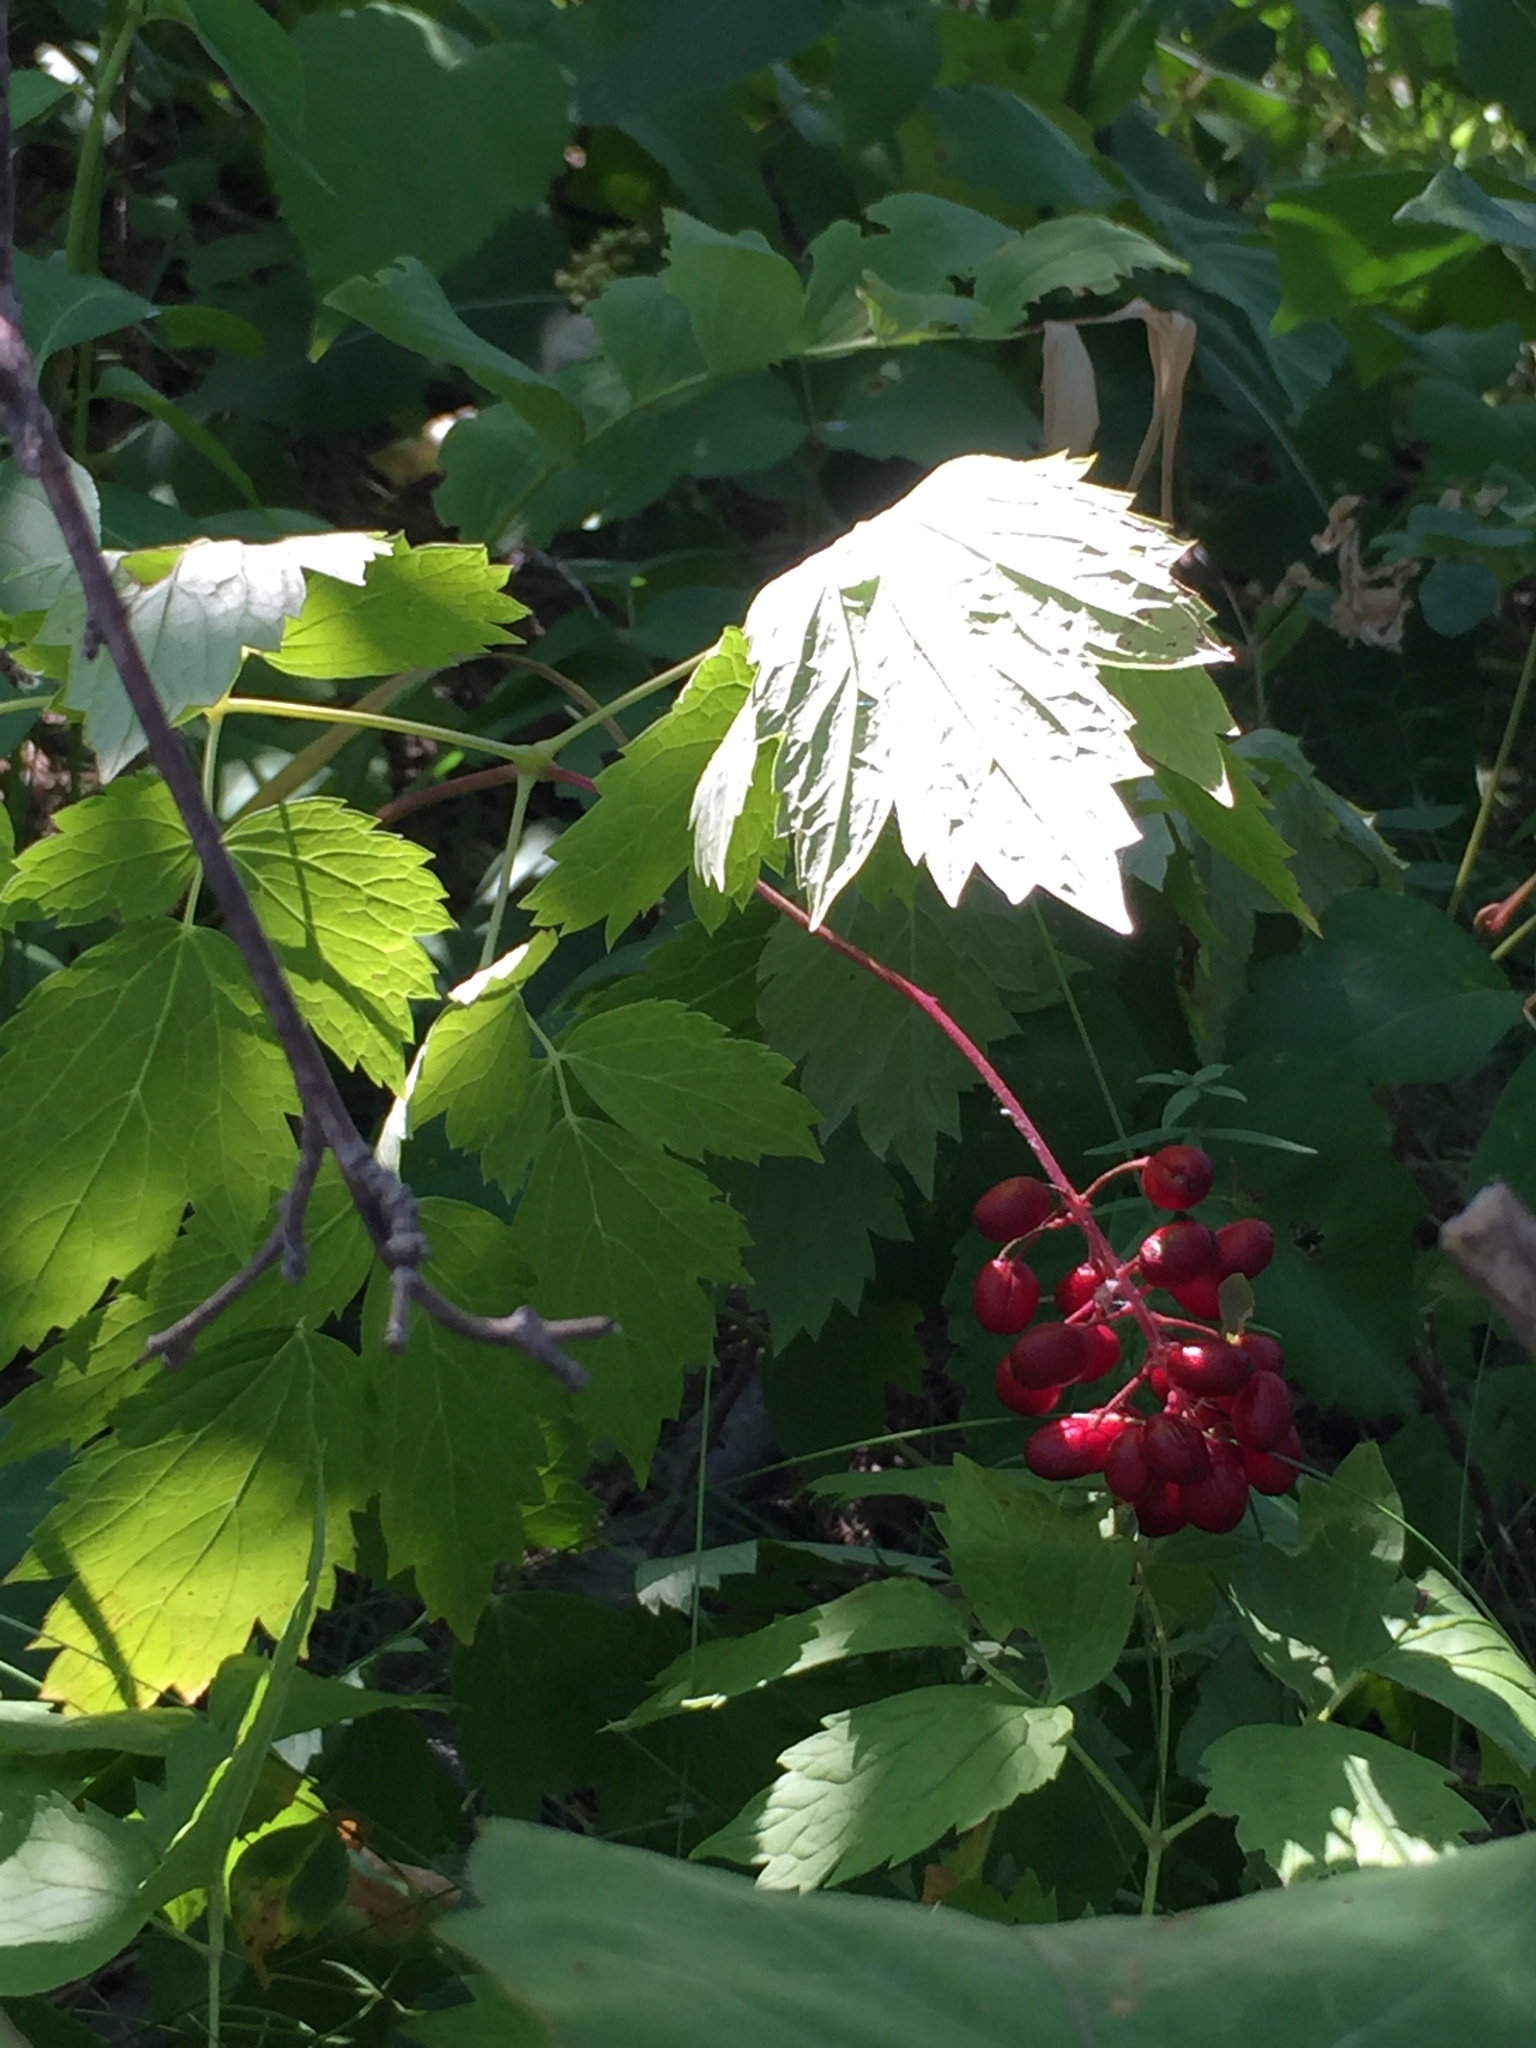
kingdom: Plantae
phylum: Tracheophyta
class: Magnoliopsida
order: Ranunculales
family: Ranunculaceae
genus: Actaea
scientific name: Actaea rubra
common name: Red baneberry
